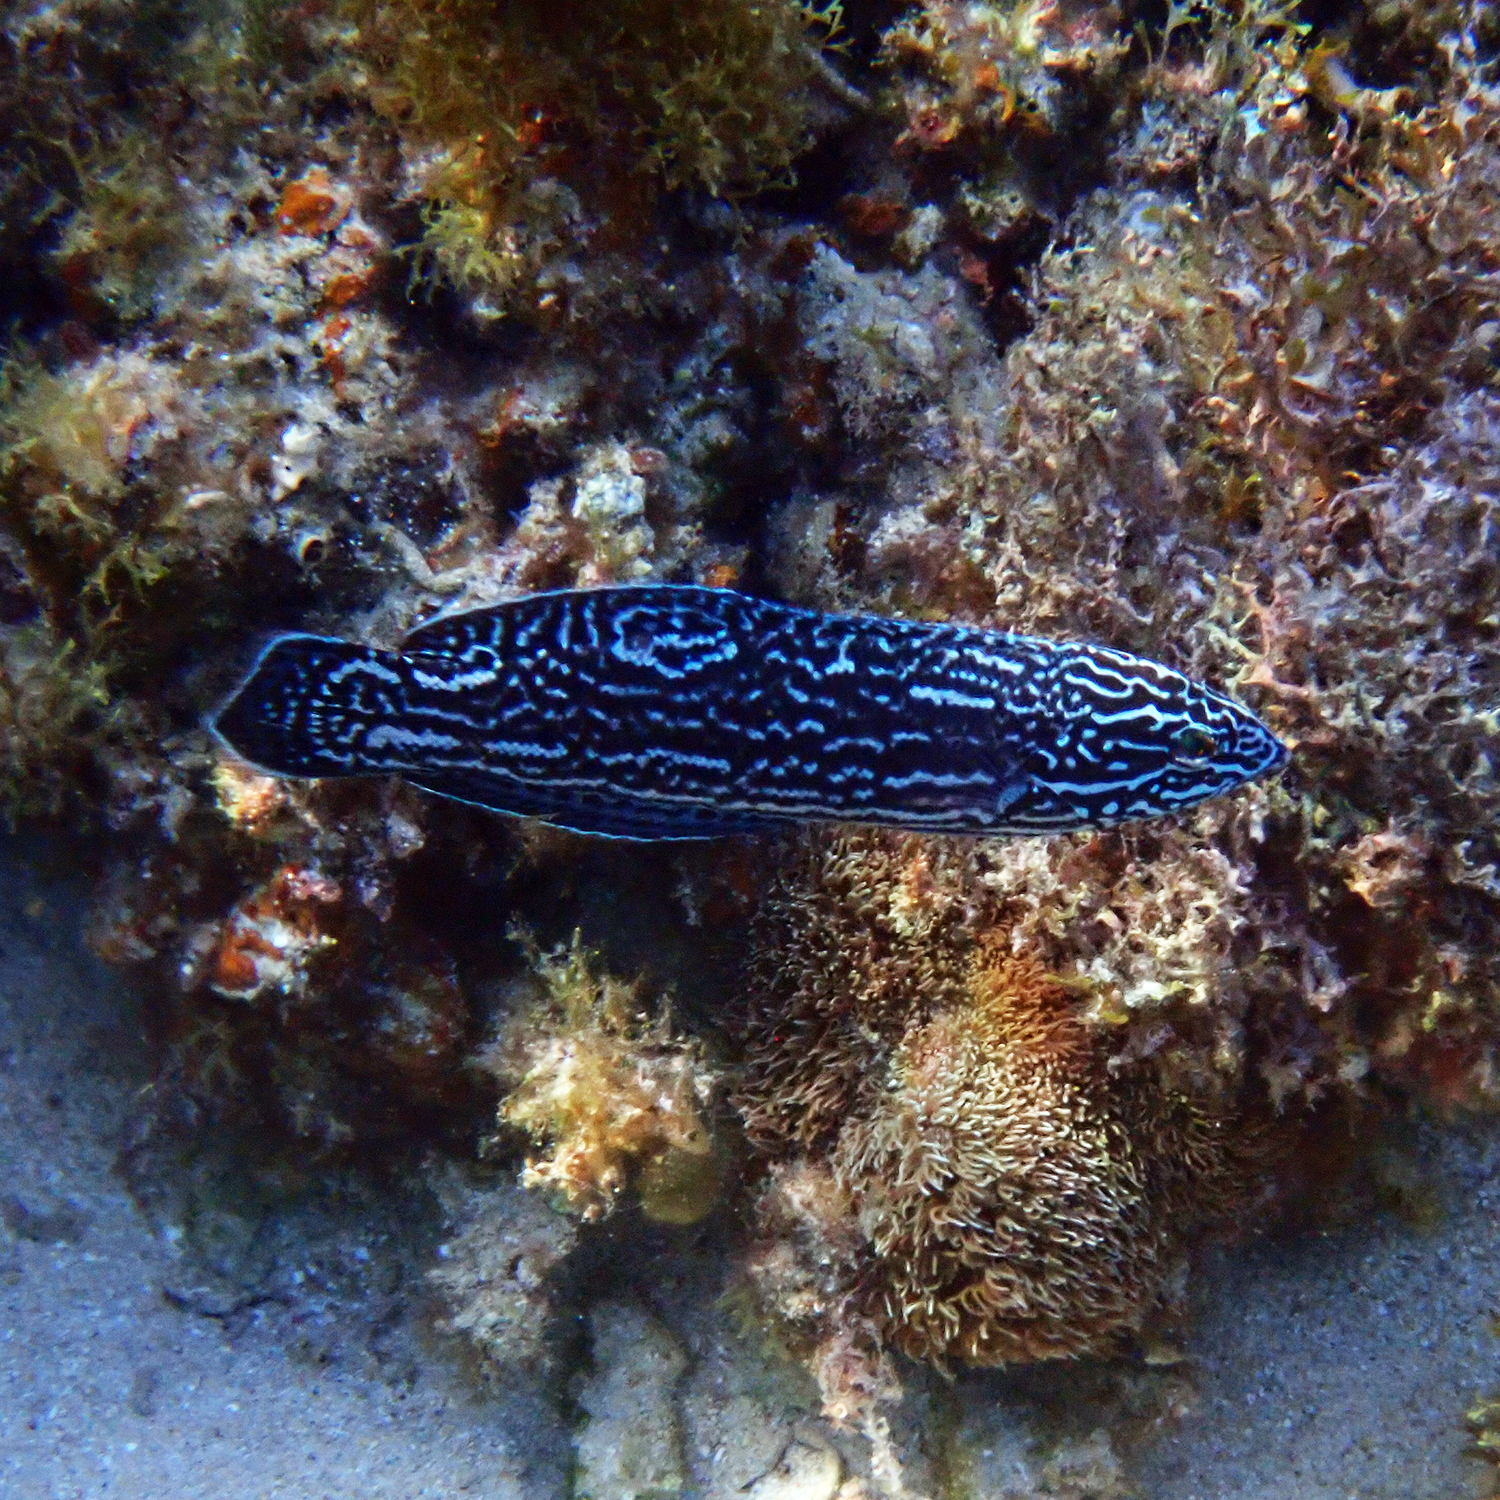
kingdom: Animalia
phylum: Chordata
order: Perciformes
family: Labridae
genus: Coris
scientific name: Coris bulbifrons
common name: Doubleheader
